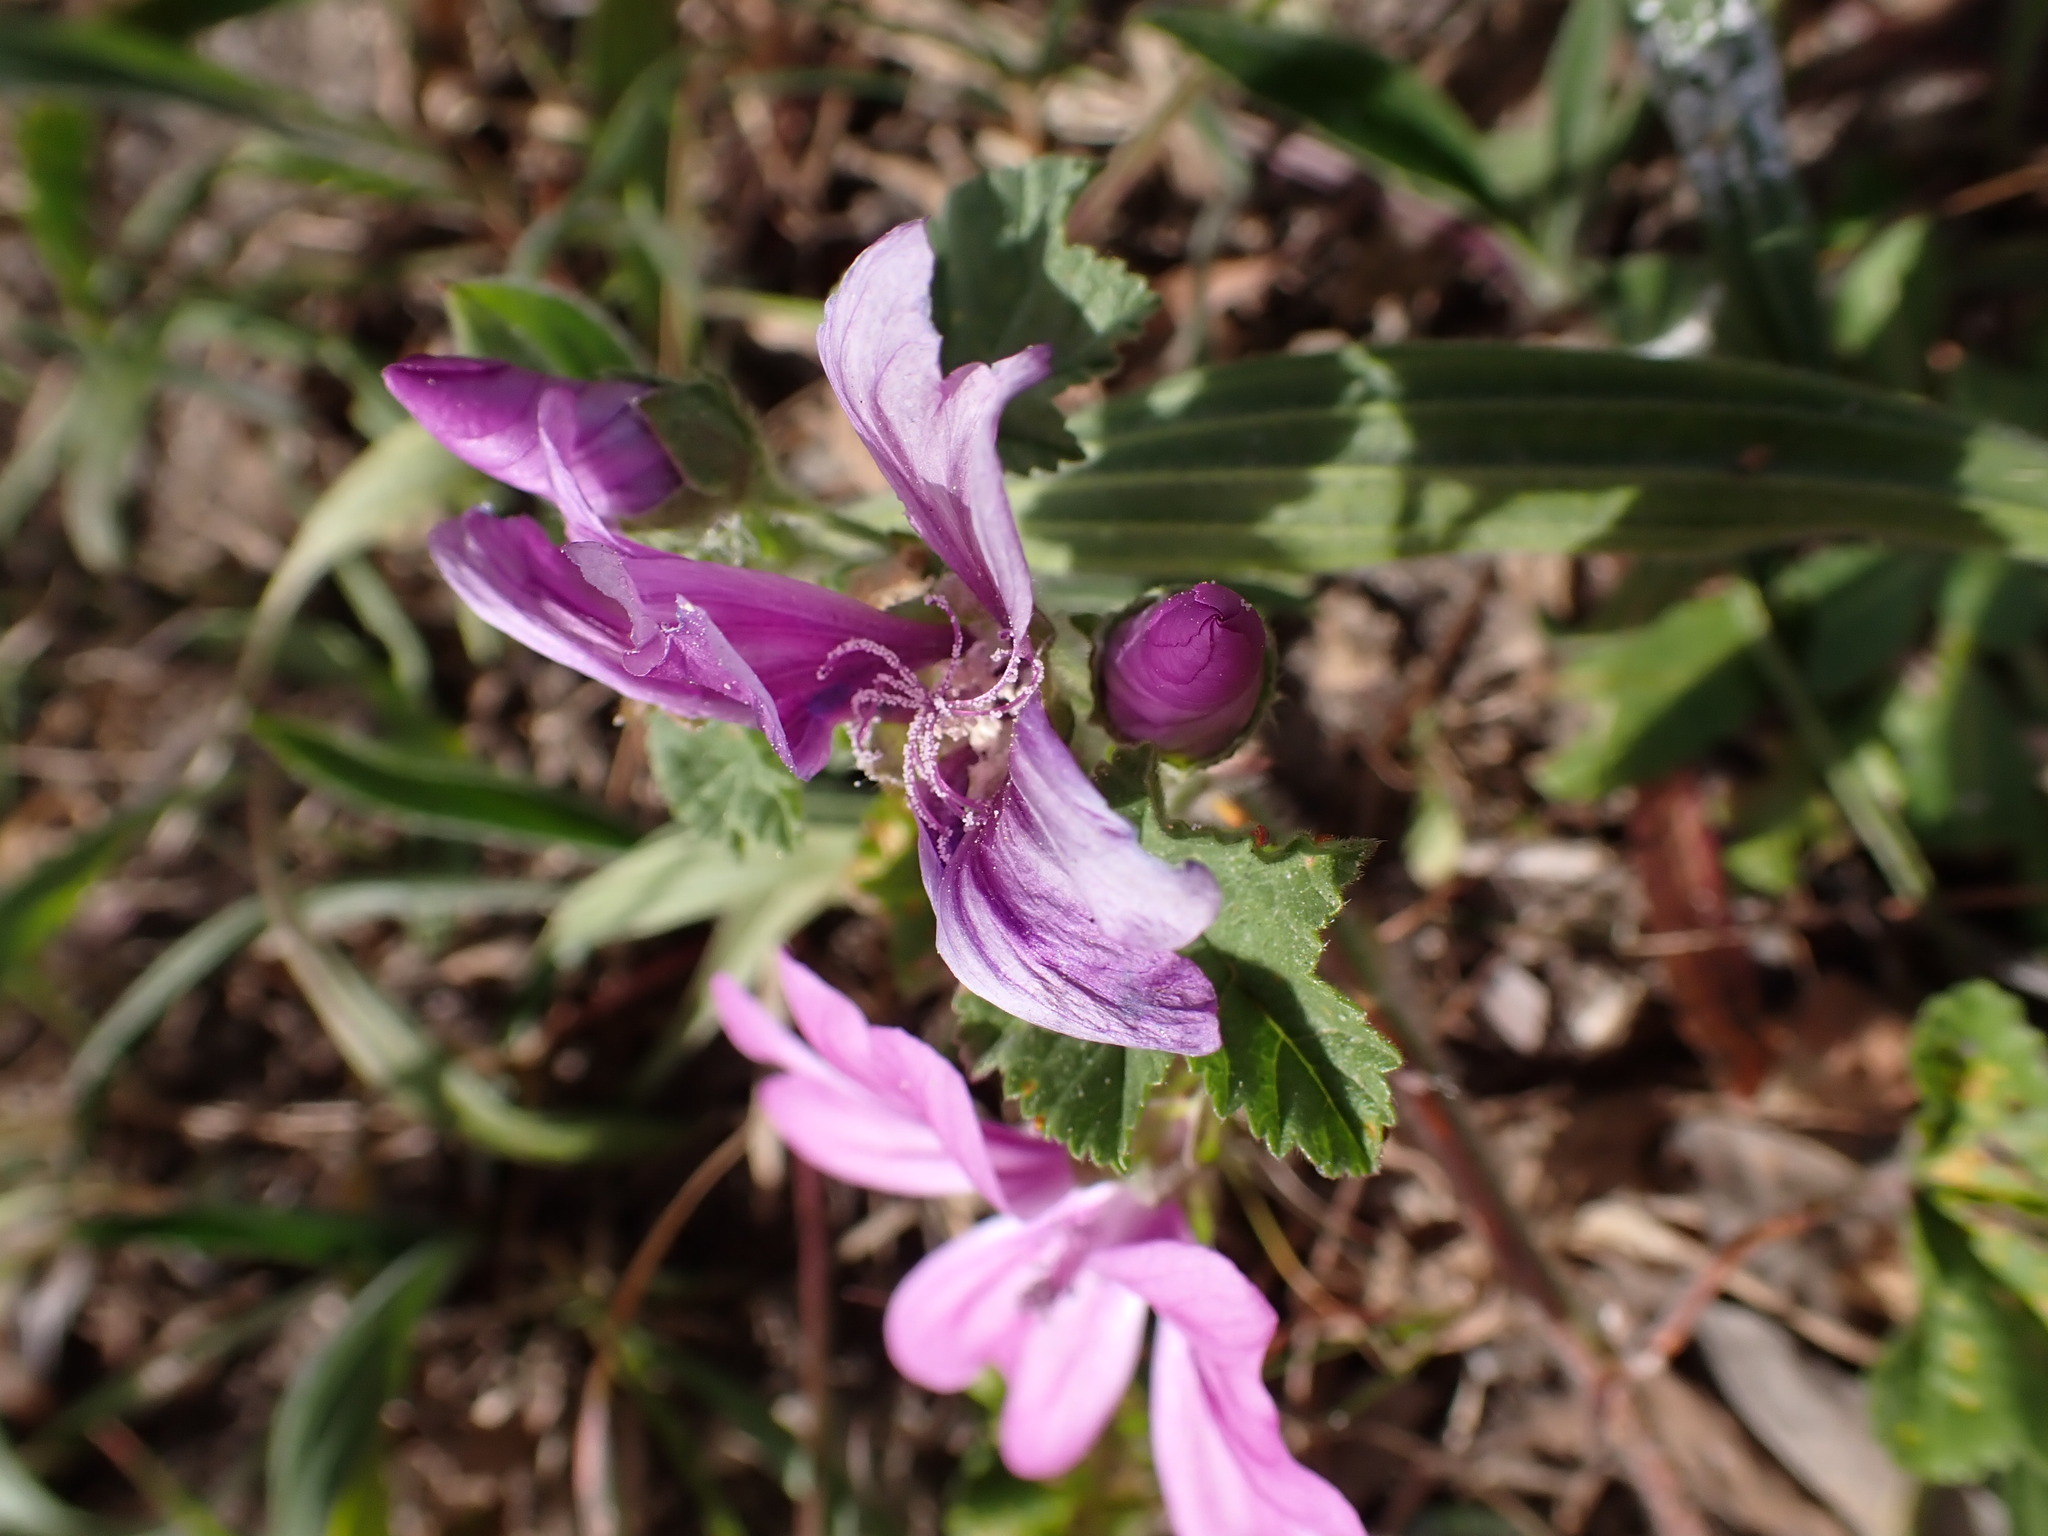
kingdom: Plantae
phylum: Tracheophyta
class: Magnoliopsida
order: Malvales
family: Malvaceae
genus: Malva
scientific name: Malva sylvestris
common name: Common mallow
